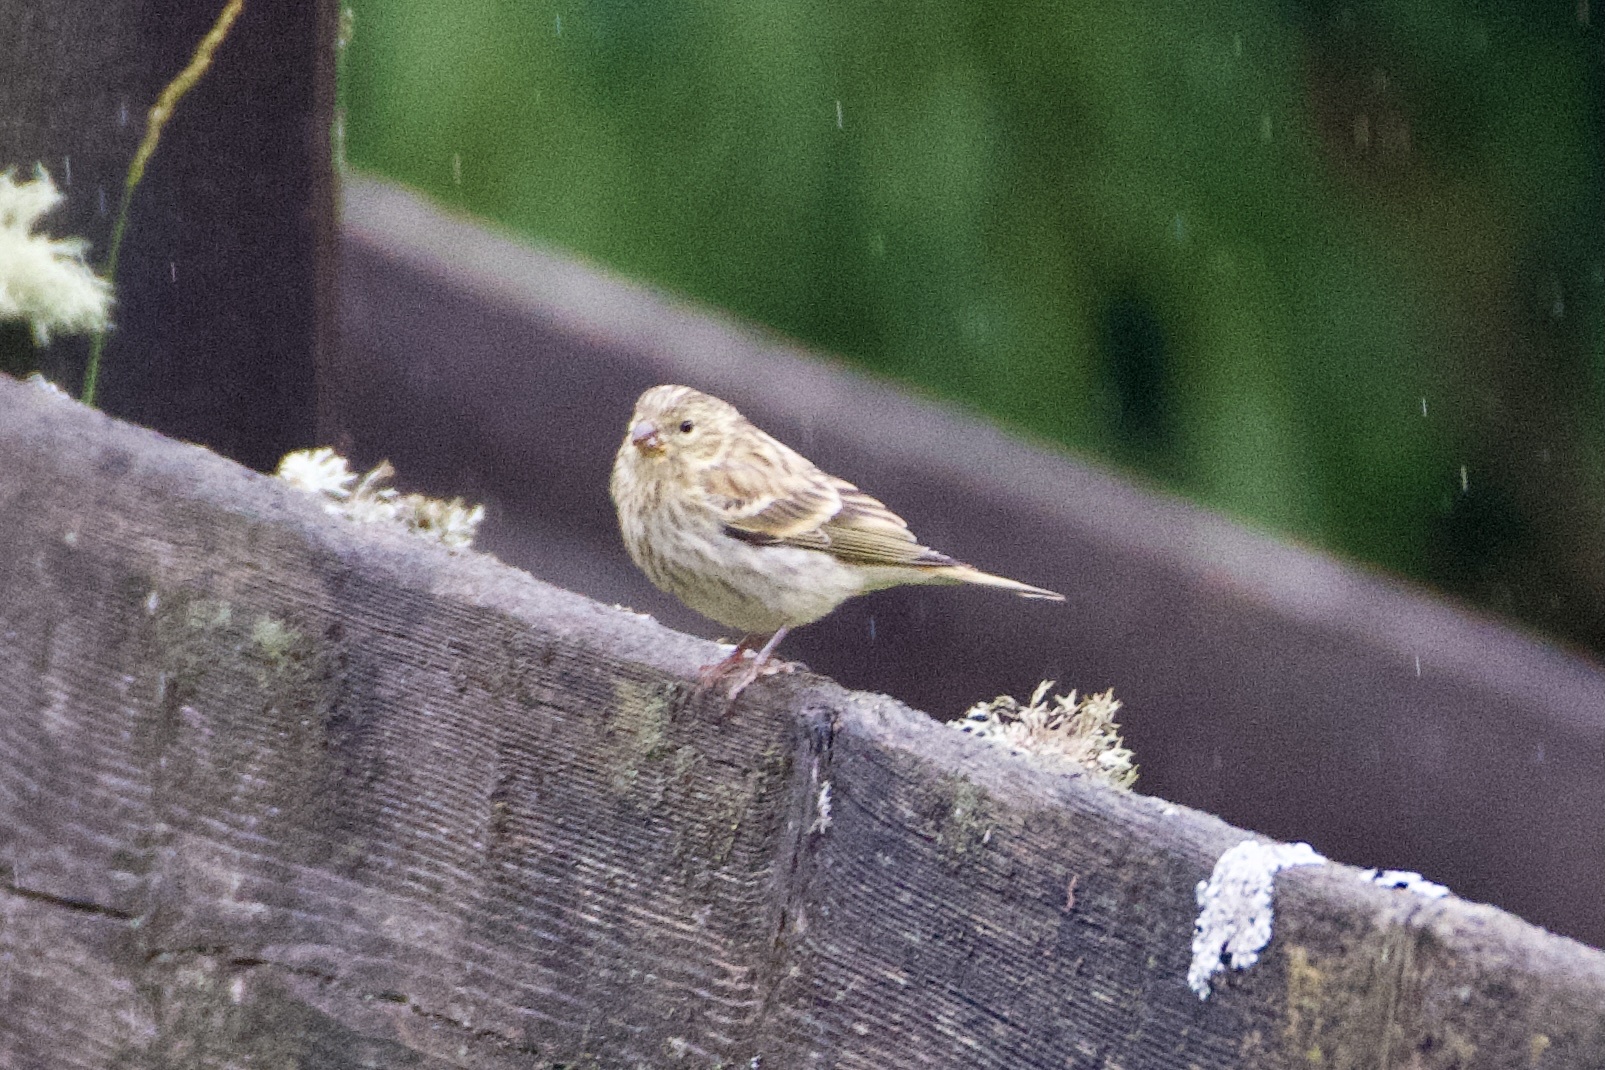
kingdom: Animalia
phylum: Chordata
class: Aves
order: Passeriformes
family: Fringillidae
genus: Serinus
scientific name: Serinus serinus
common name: European serin
